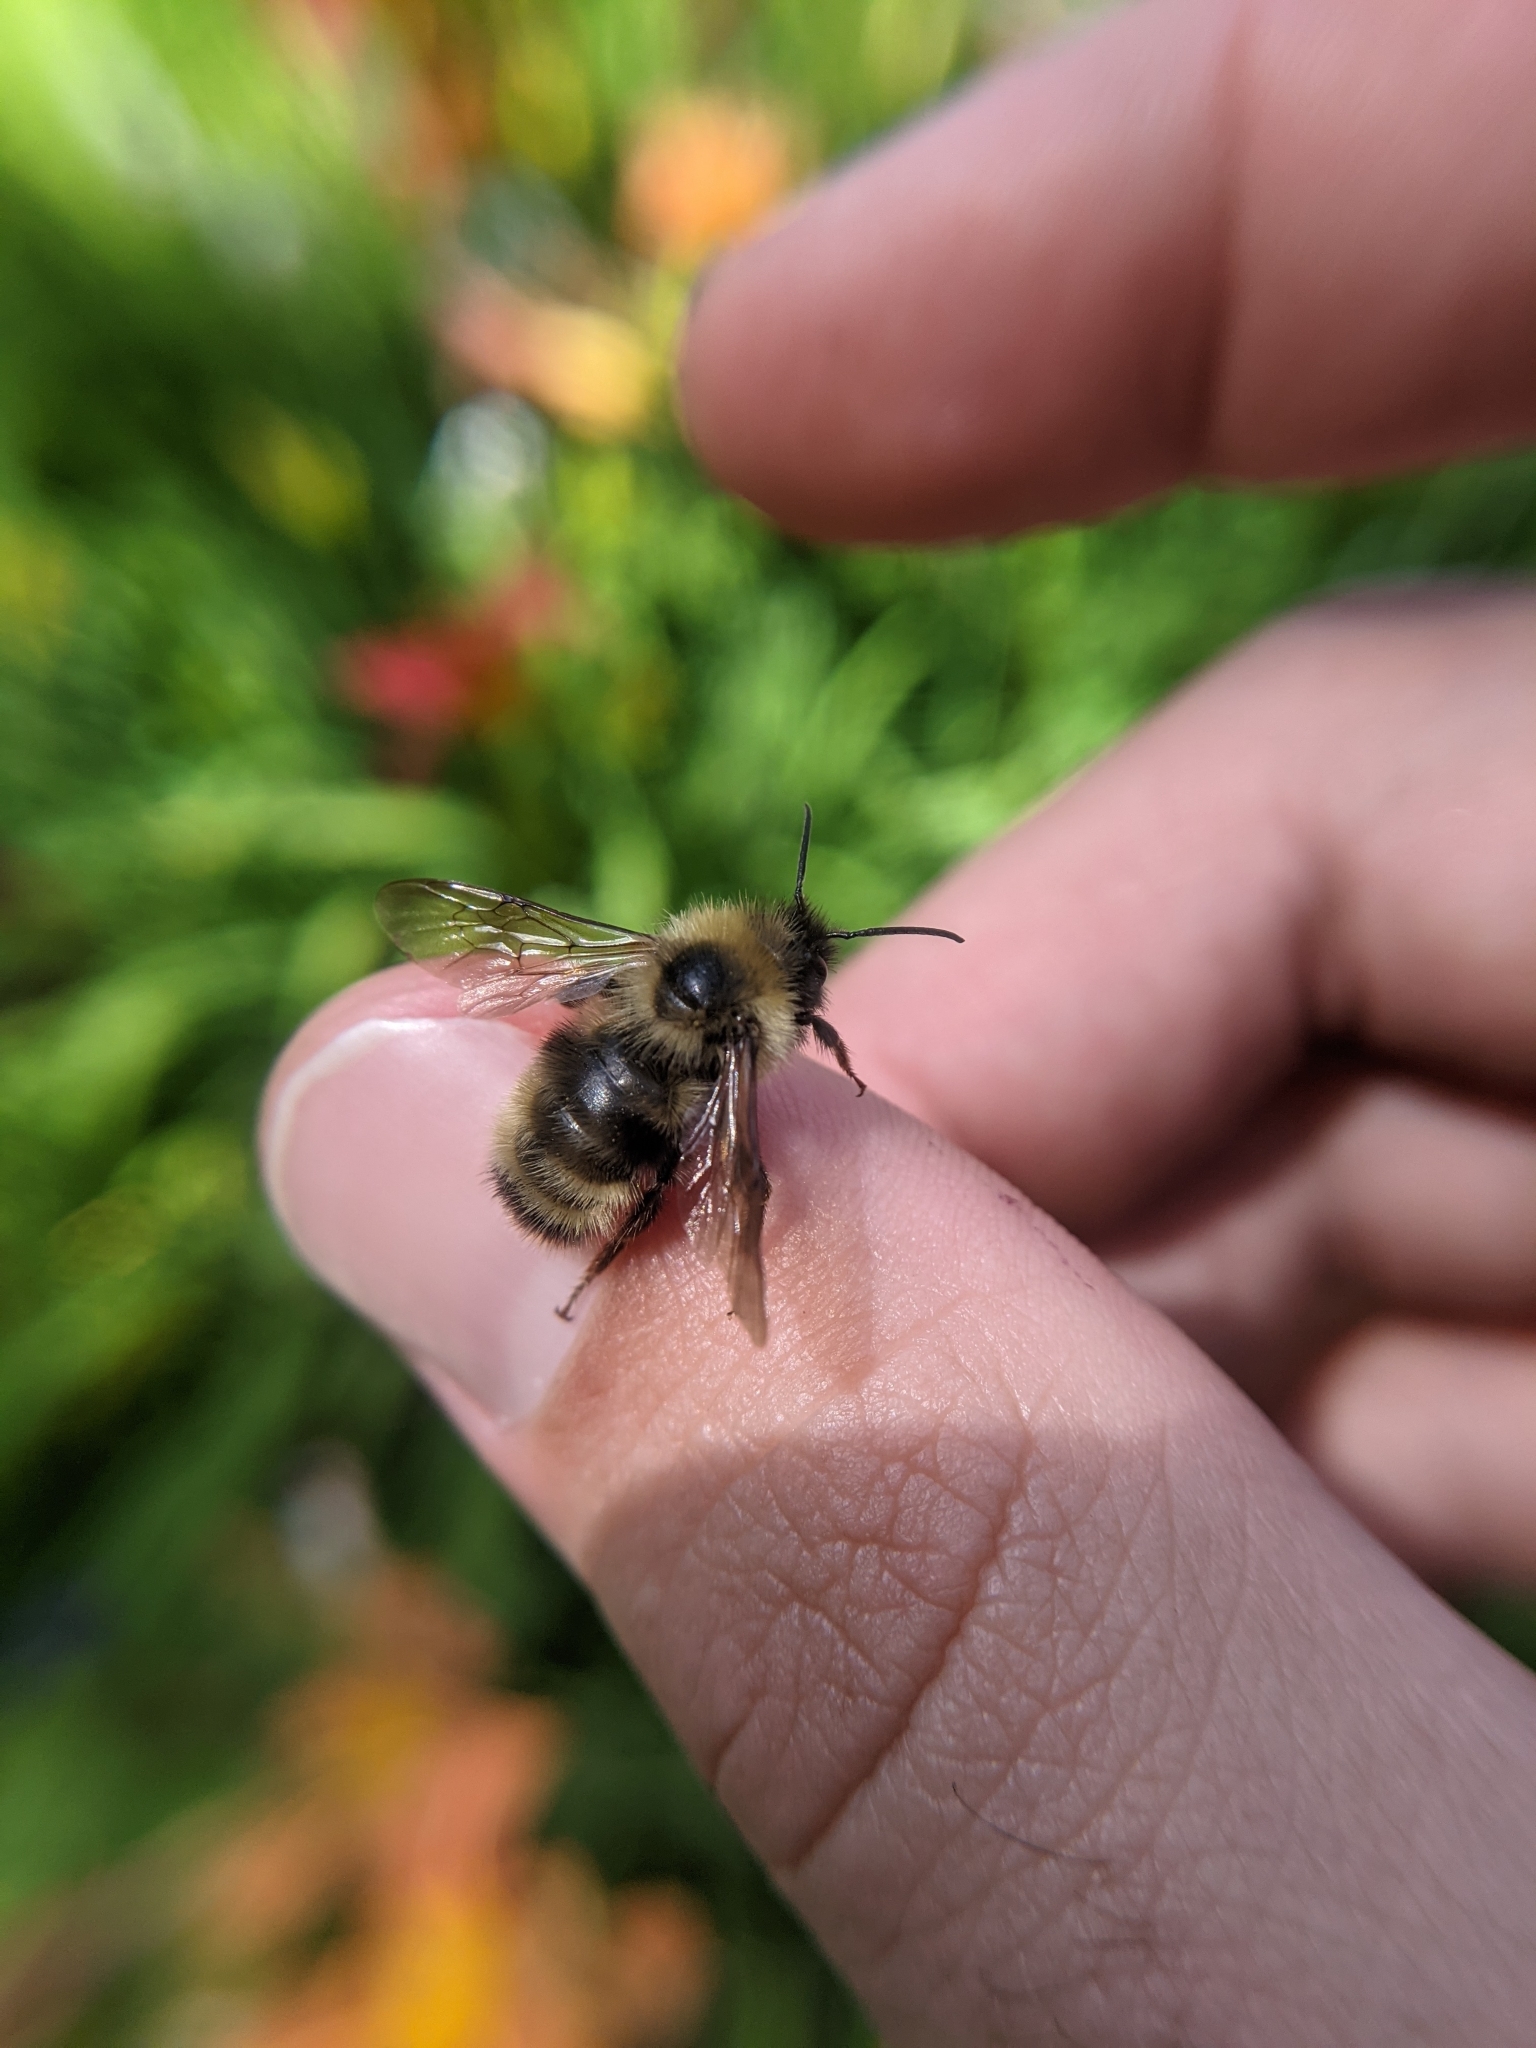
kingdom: Animalia
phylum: Arthropoda
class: Insecta
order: Hymenoptera
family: Apidae
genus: Bombus
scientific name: Bombus flavidus
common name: Fernald cuckoo bumble bee
